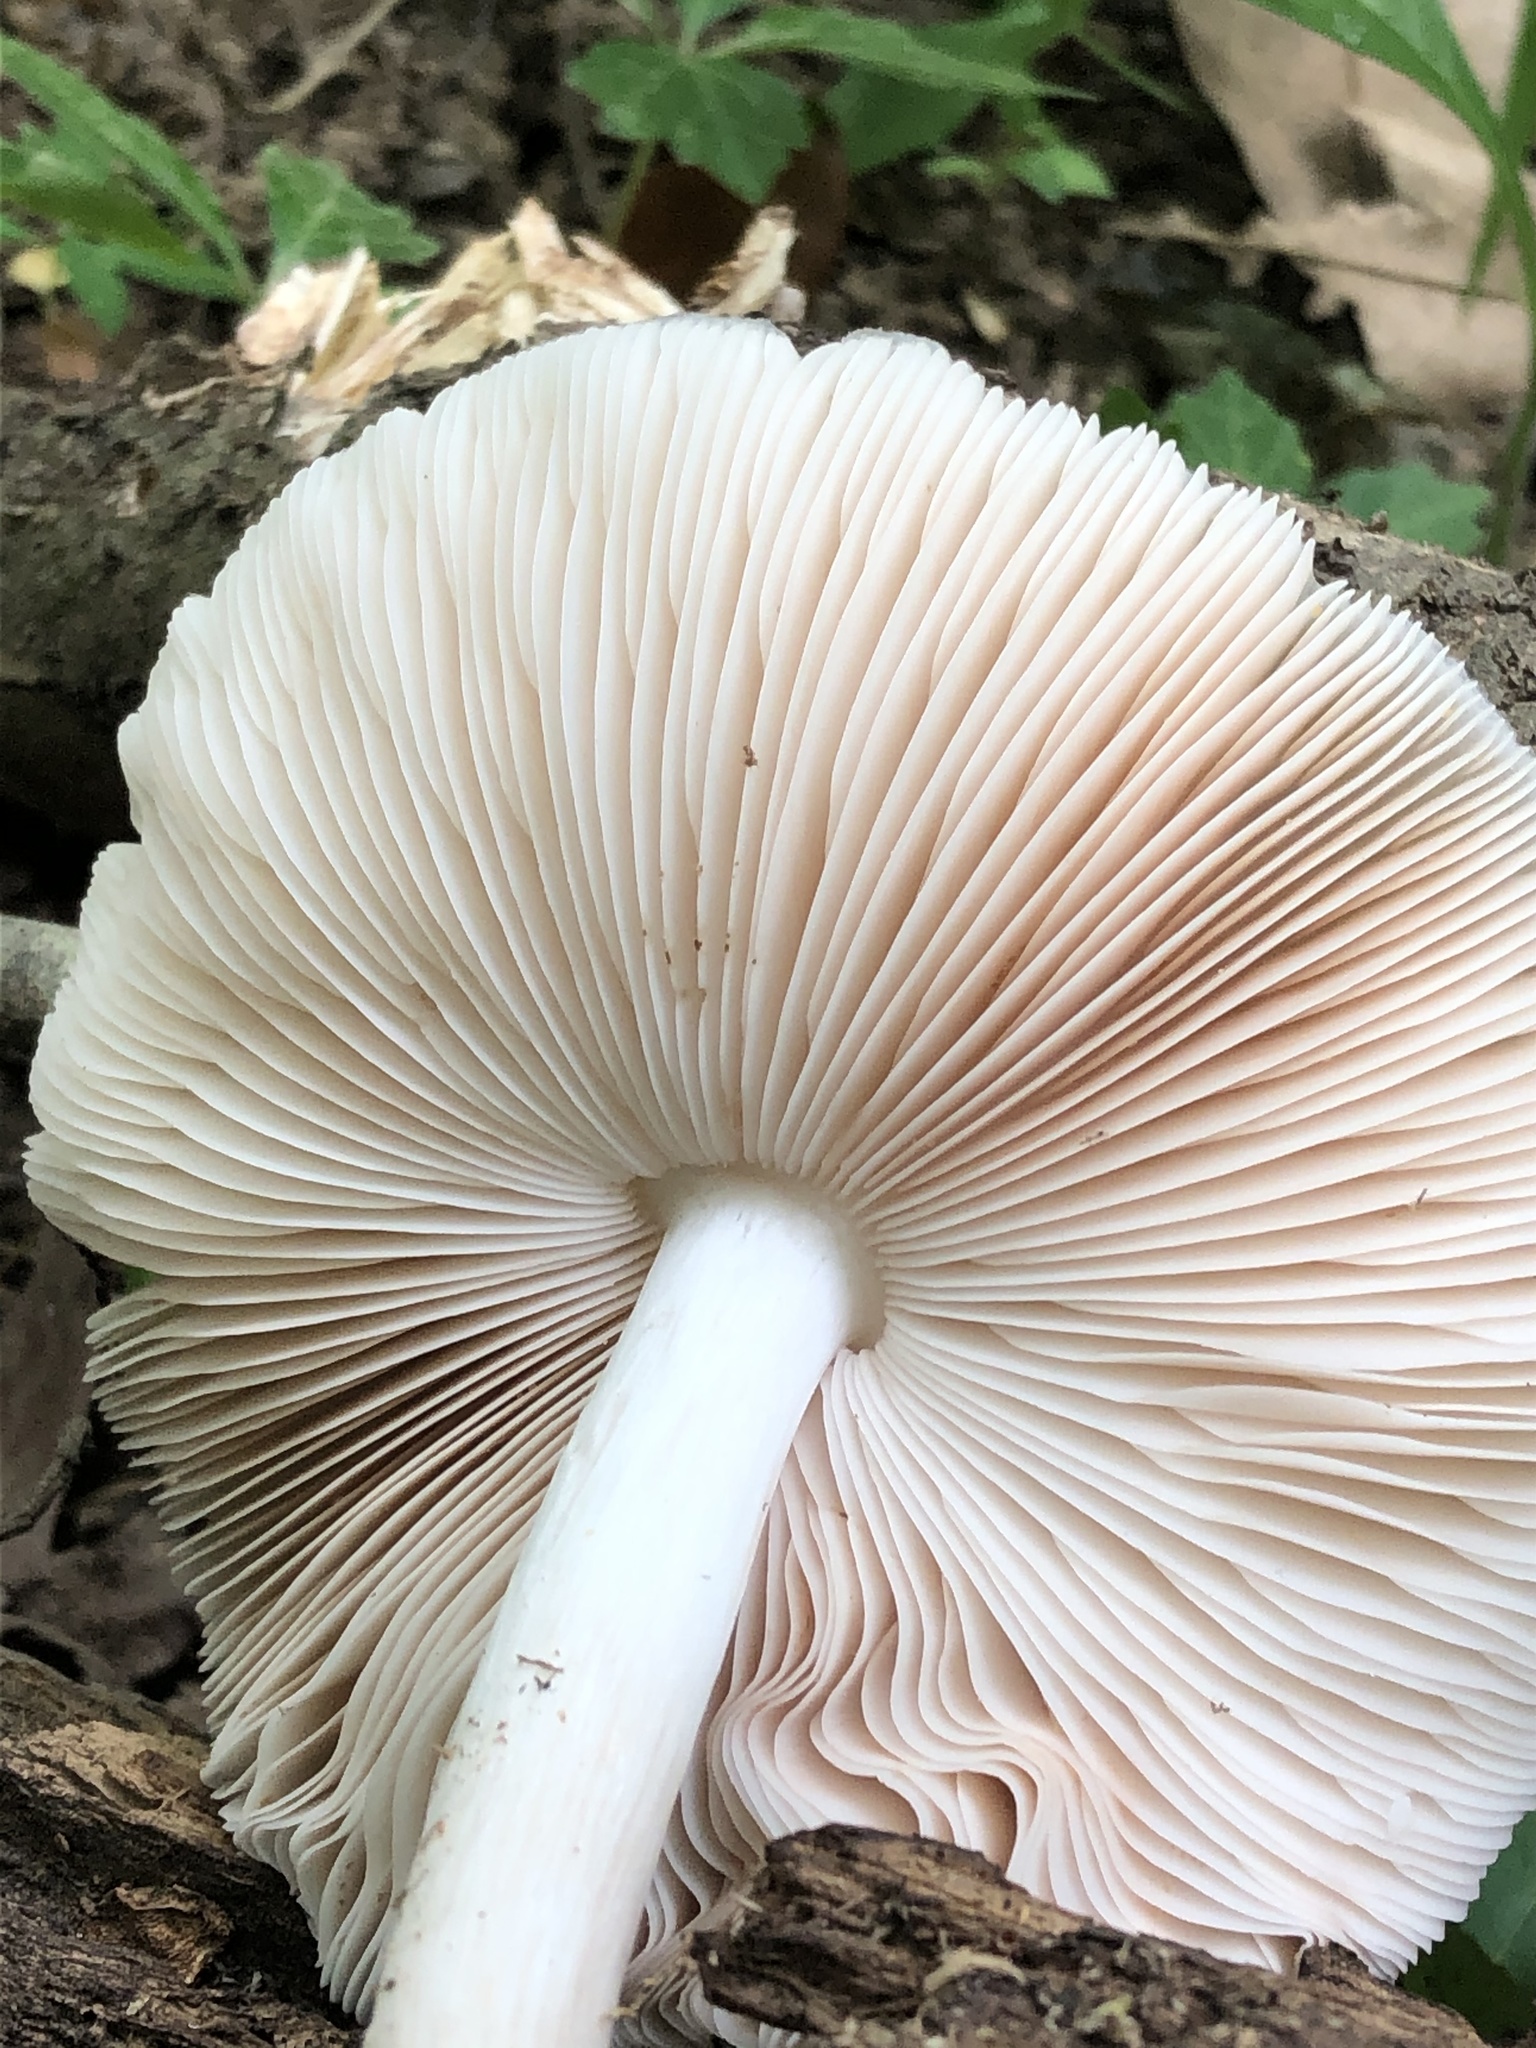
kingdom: Fungi
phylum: Basidiomycota
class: Agaricomycetes
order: Agaricales
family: Pluteaceae
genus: Pluteus
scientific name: Pluteus cervinus
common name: Deer shield
